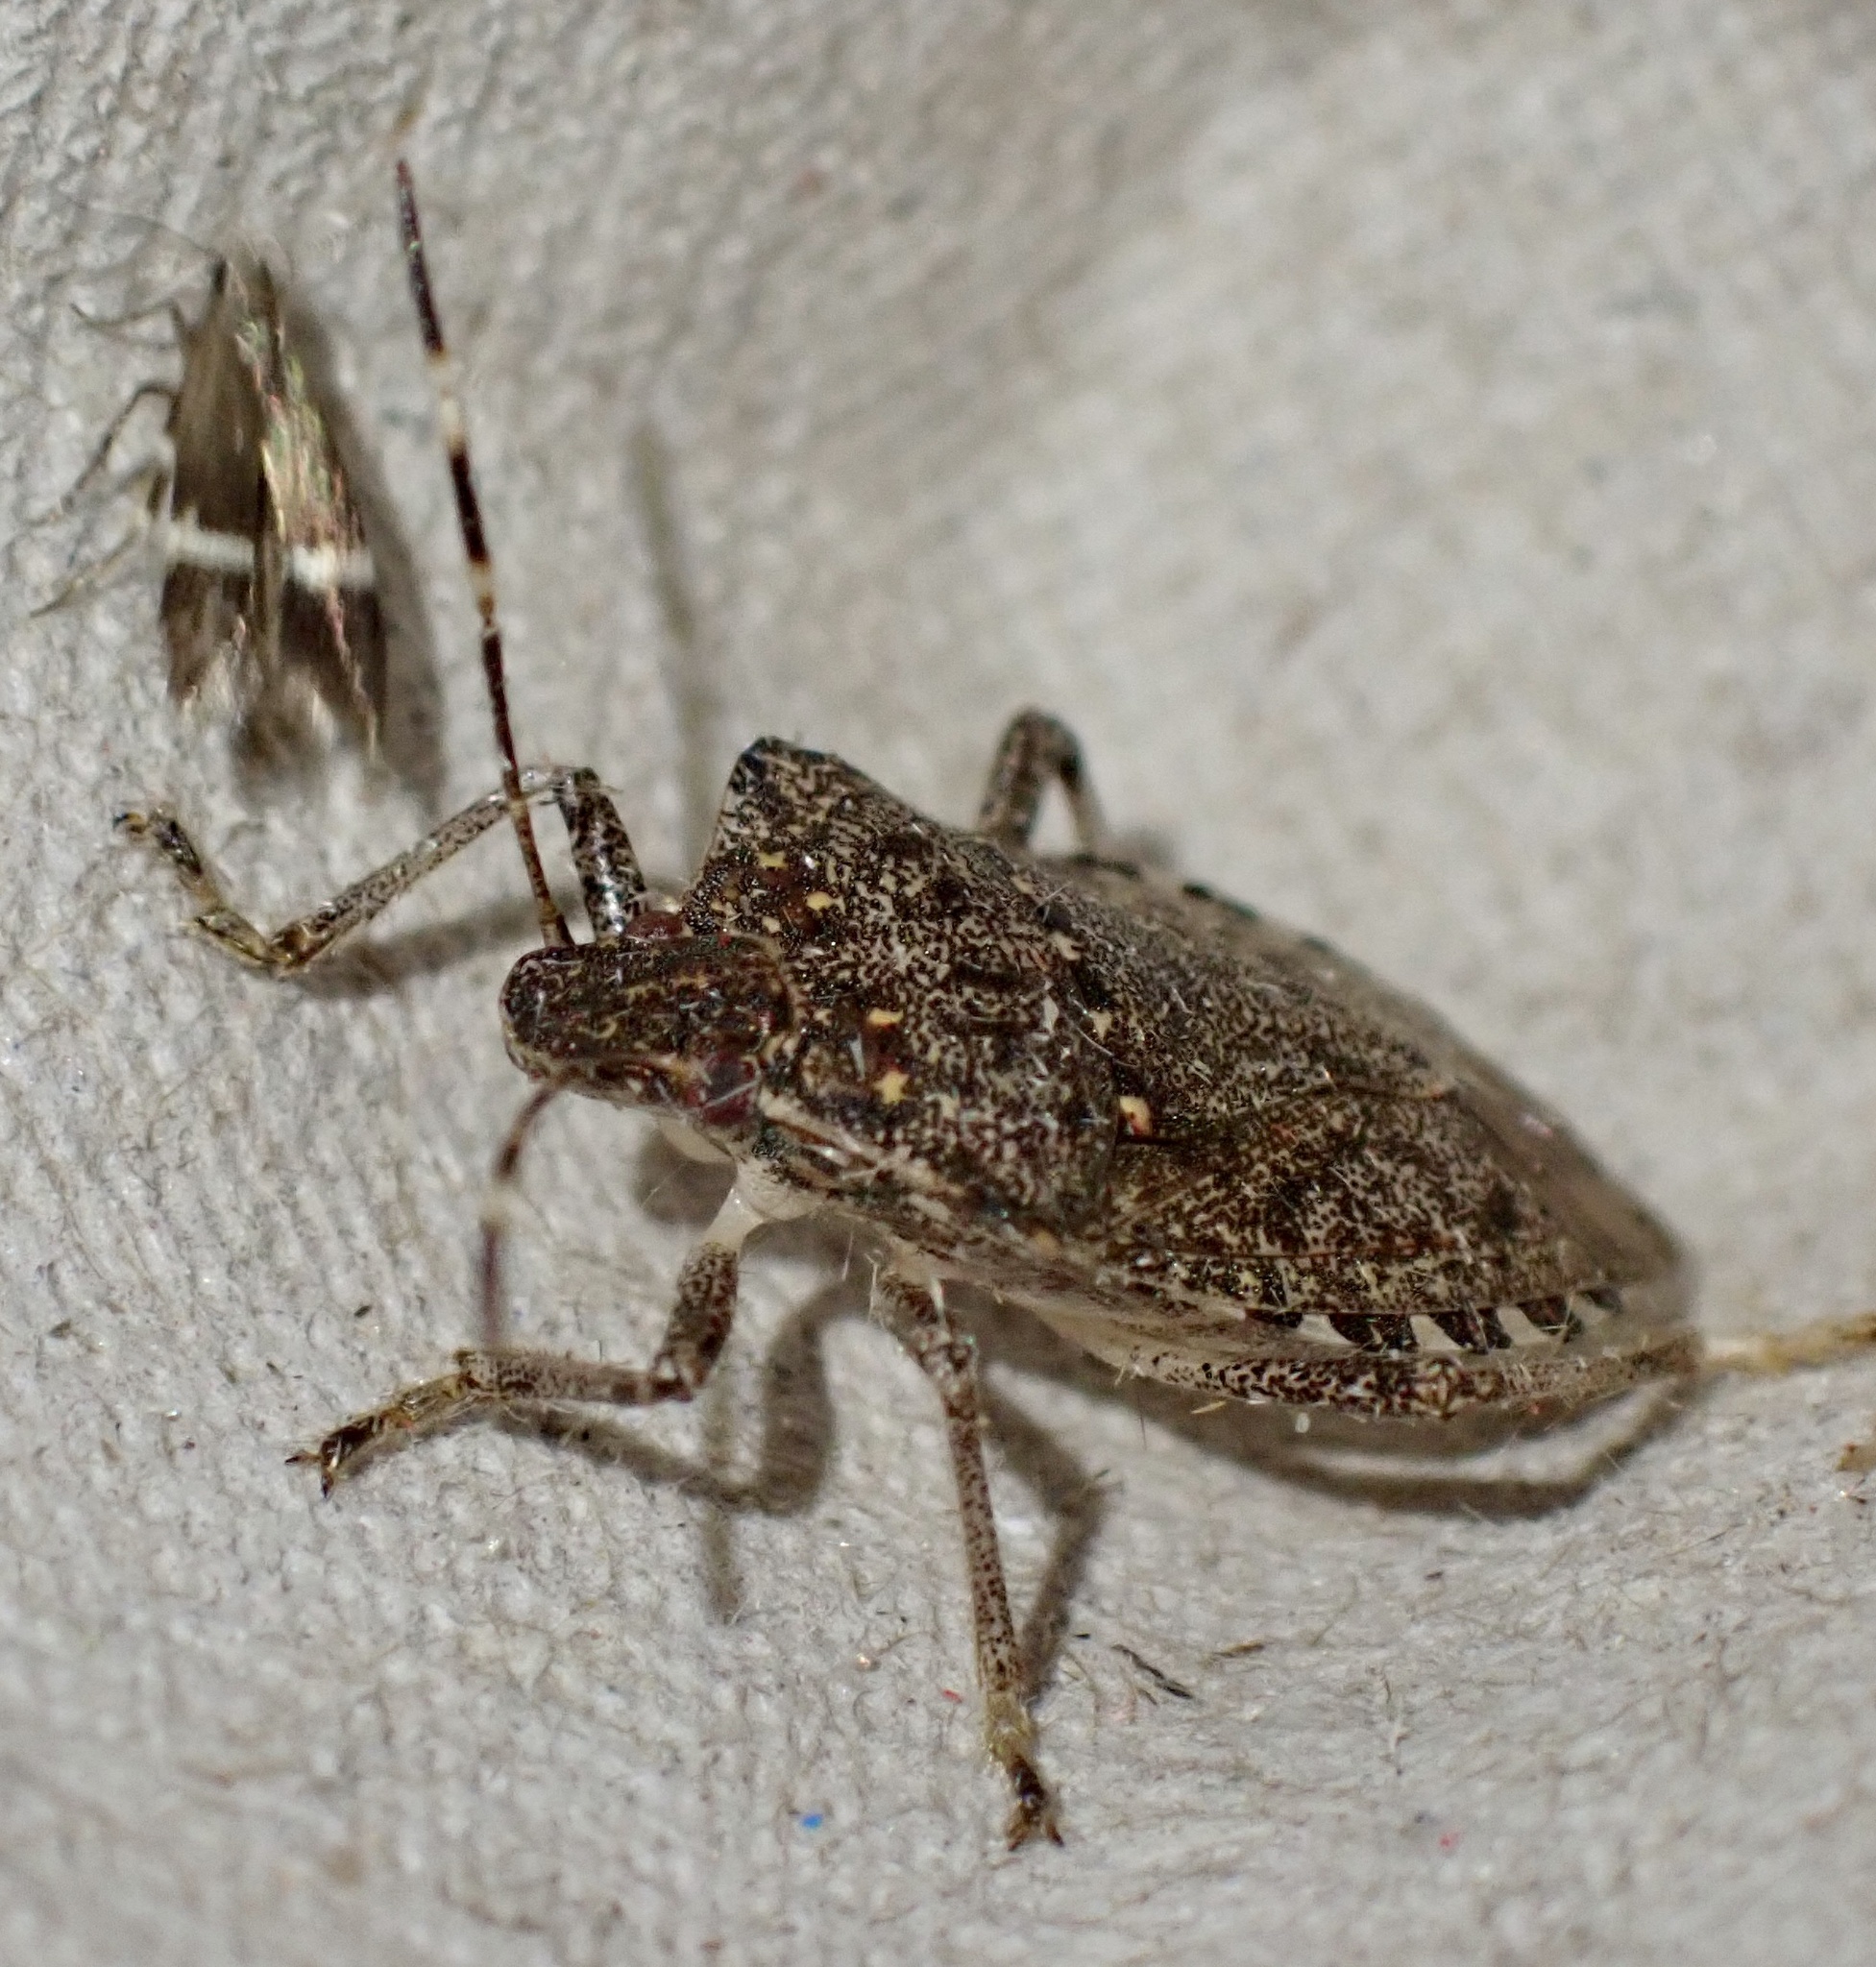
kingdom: Animalia
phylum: Arthropoda
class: Insecta
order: Hemiptera
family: Pentatomidae
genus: Halyomorpha
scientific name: Halyomorpha halys
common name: Brown marmorated stink bug
